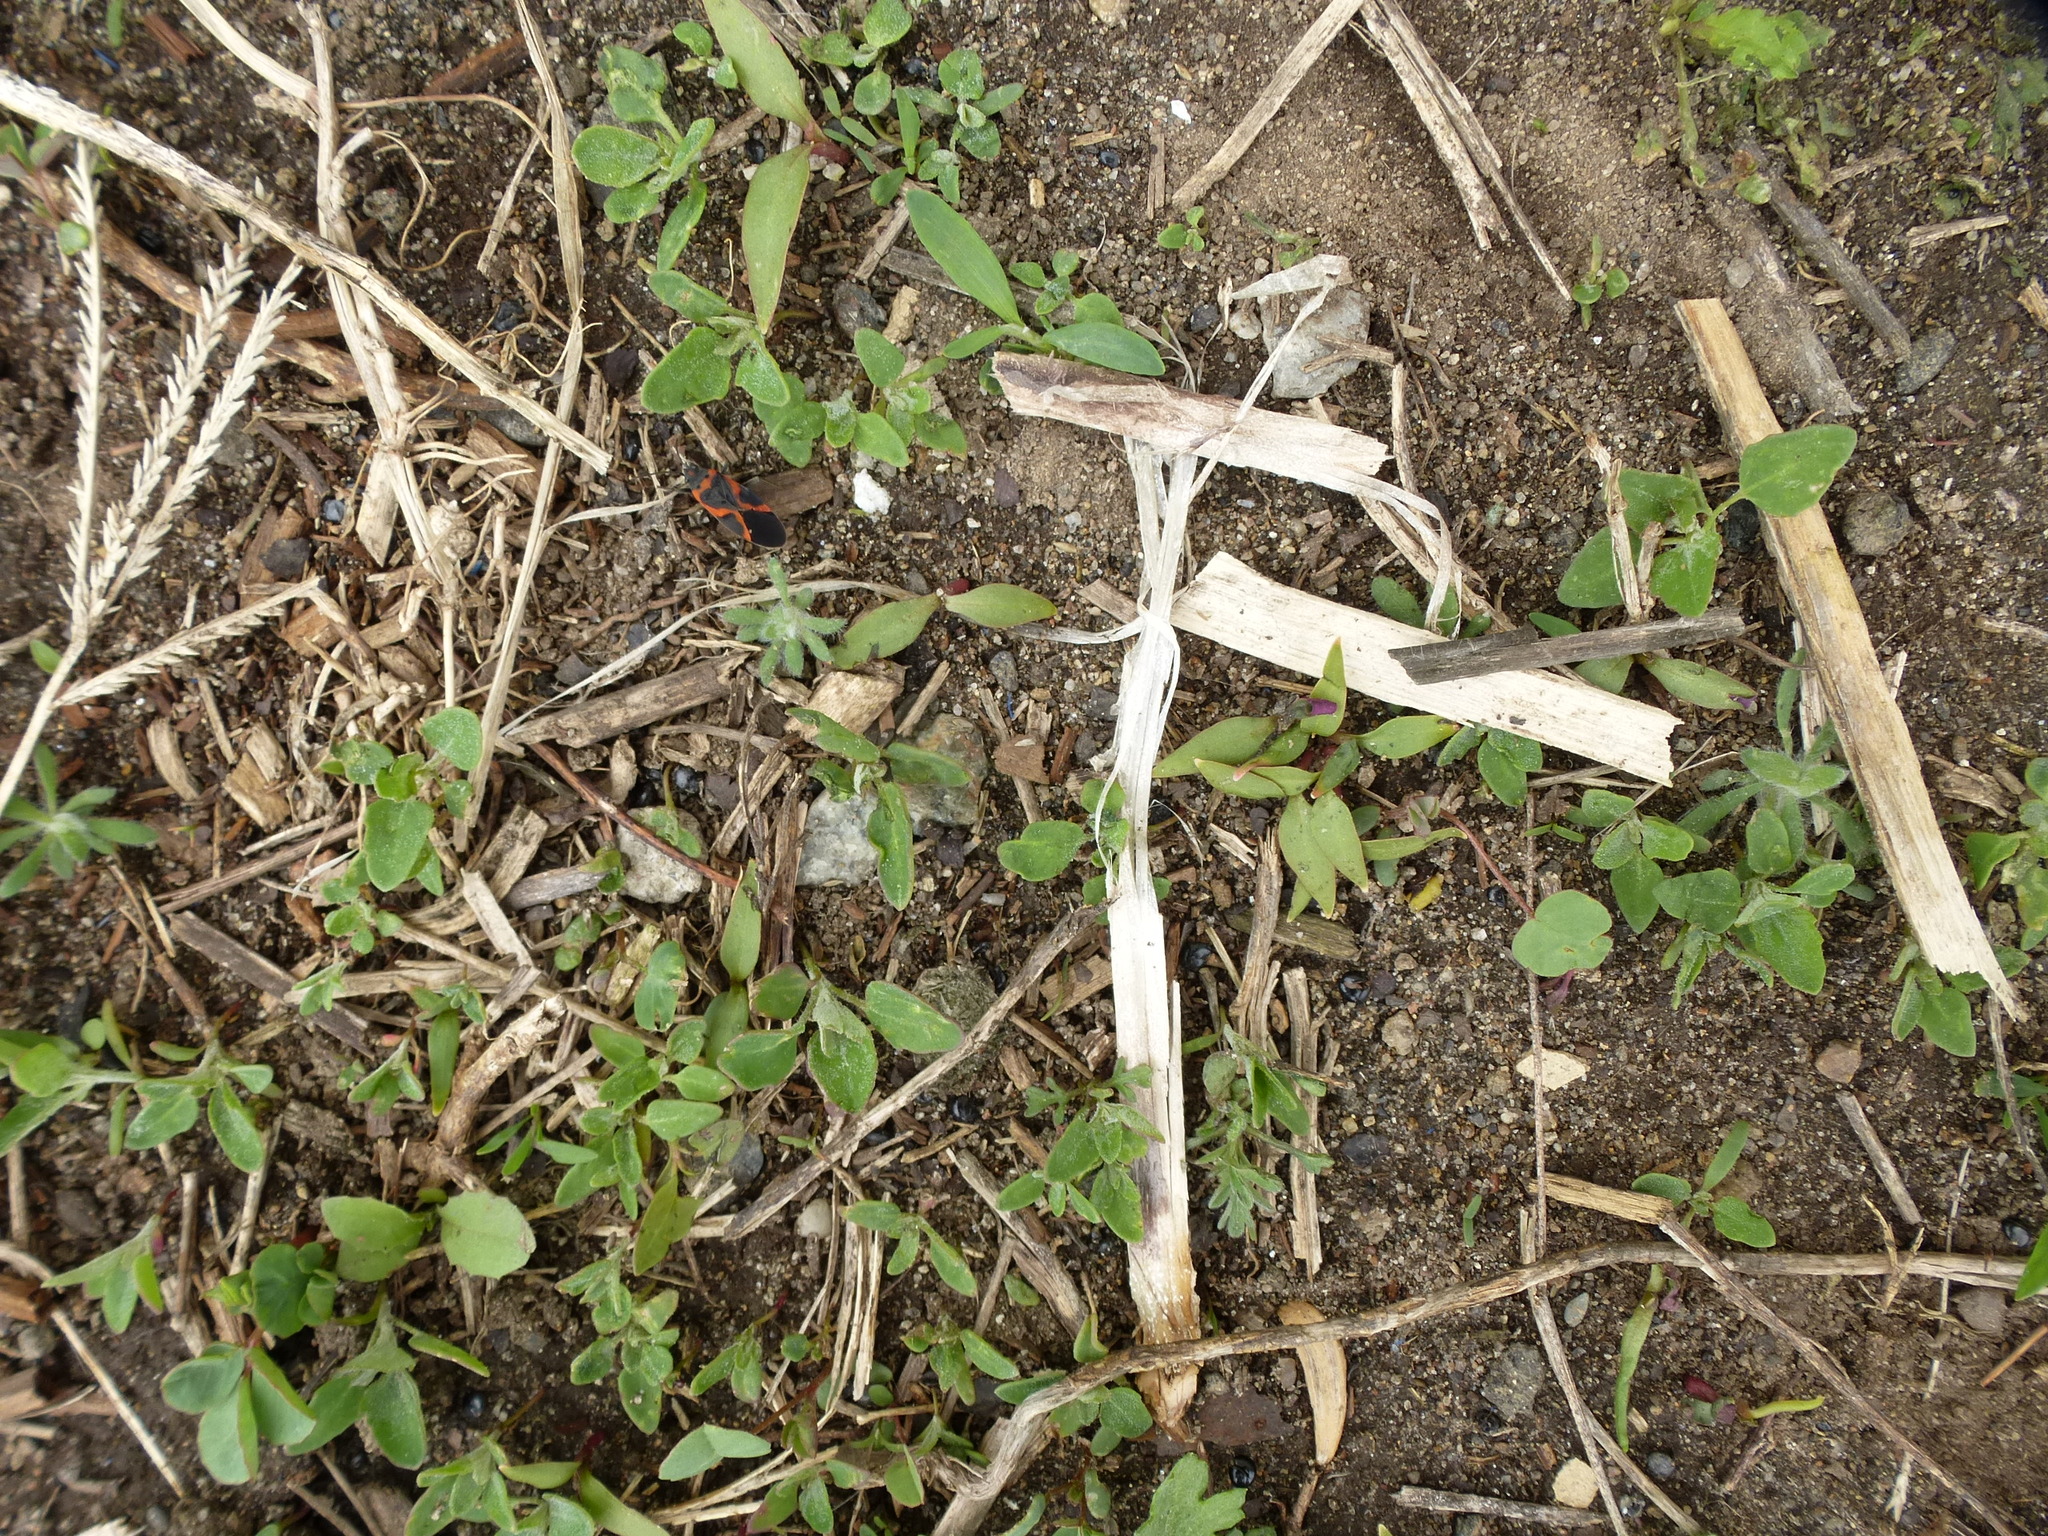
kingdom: Animalia
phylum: Arthropoda
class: Insecta
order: Hemiptera
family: Lygaeidae
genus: Lygaeus
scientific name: Lygaeus kalmii
